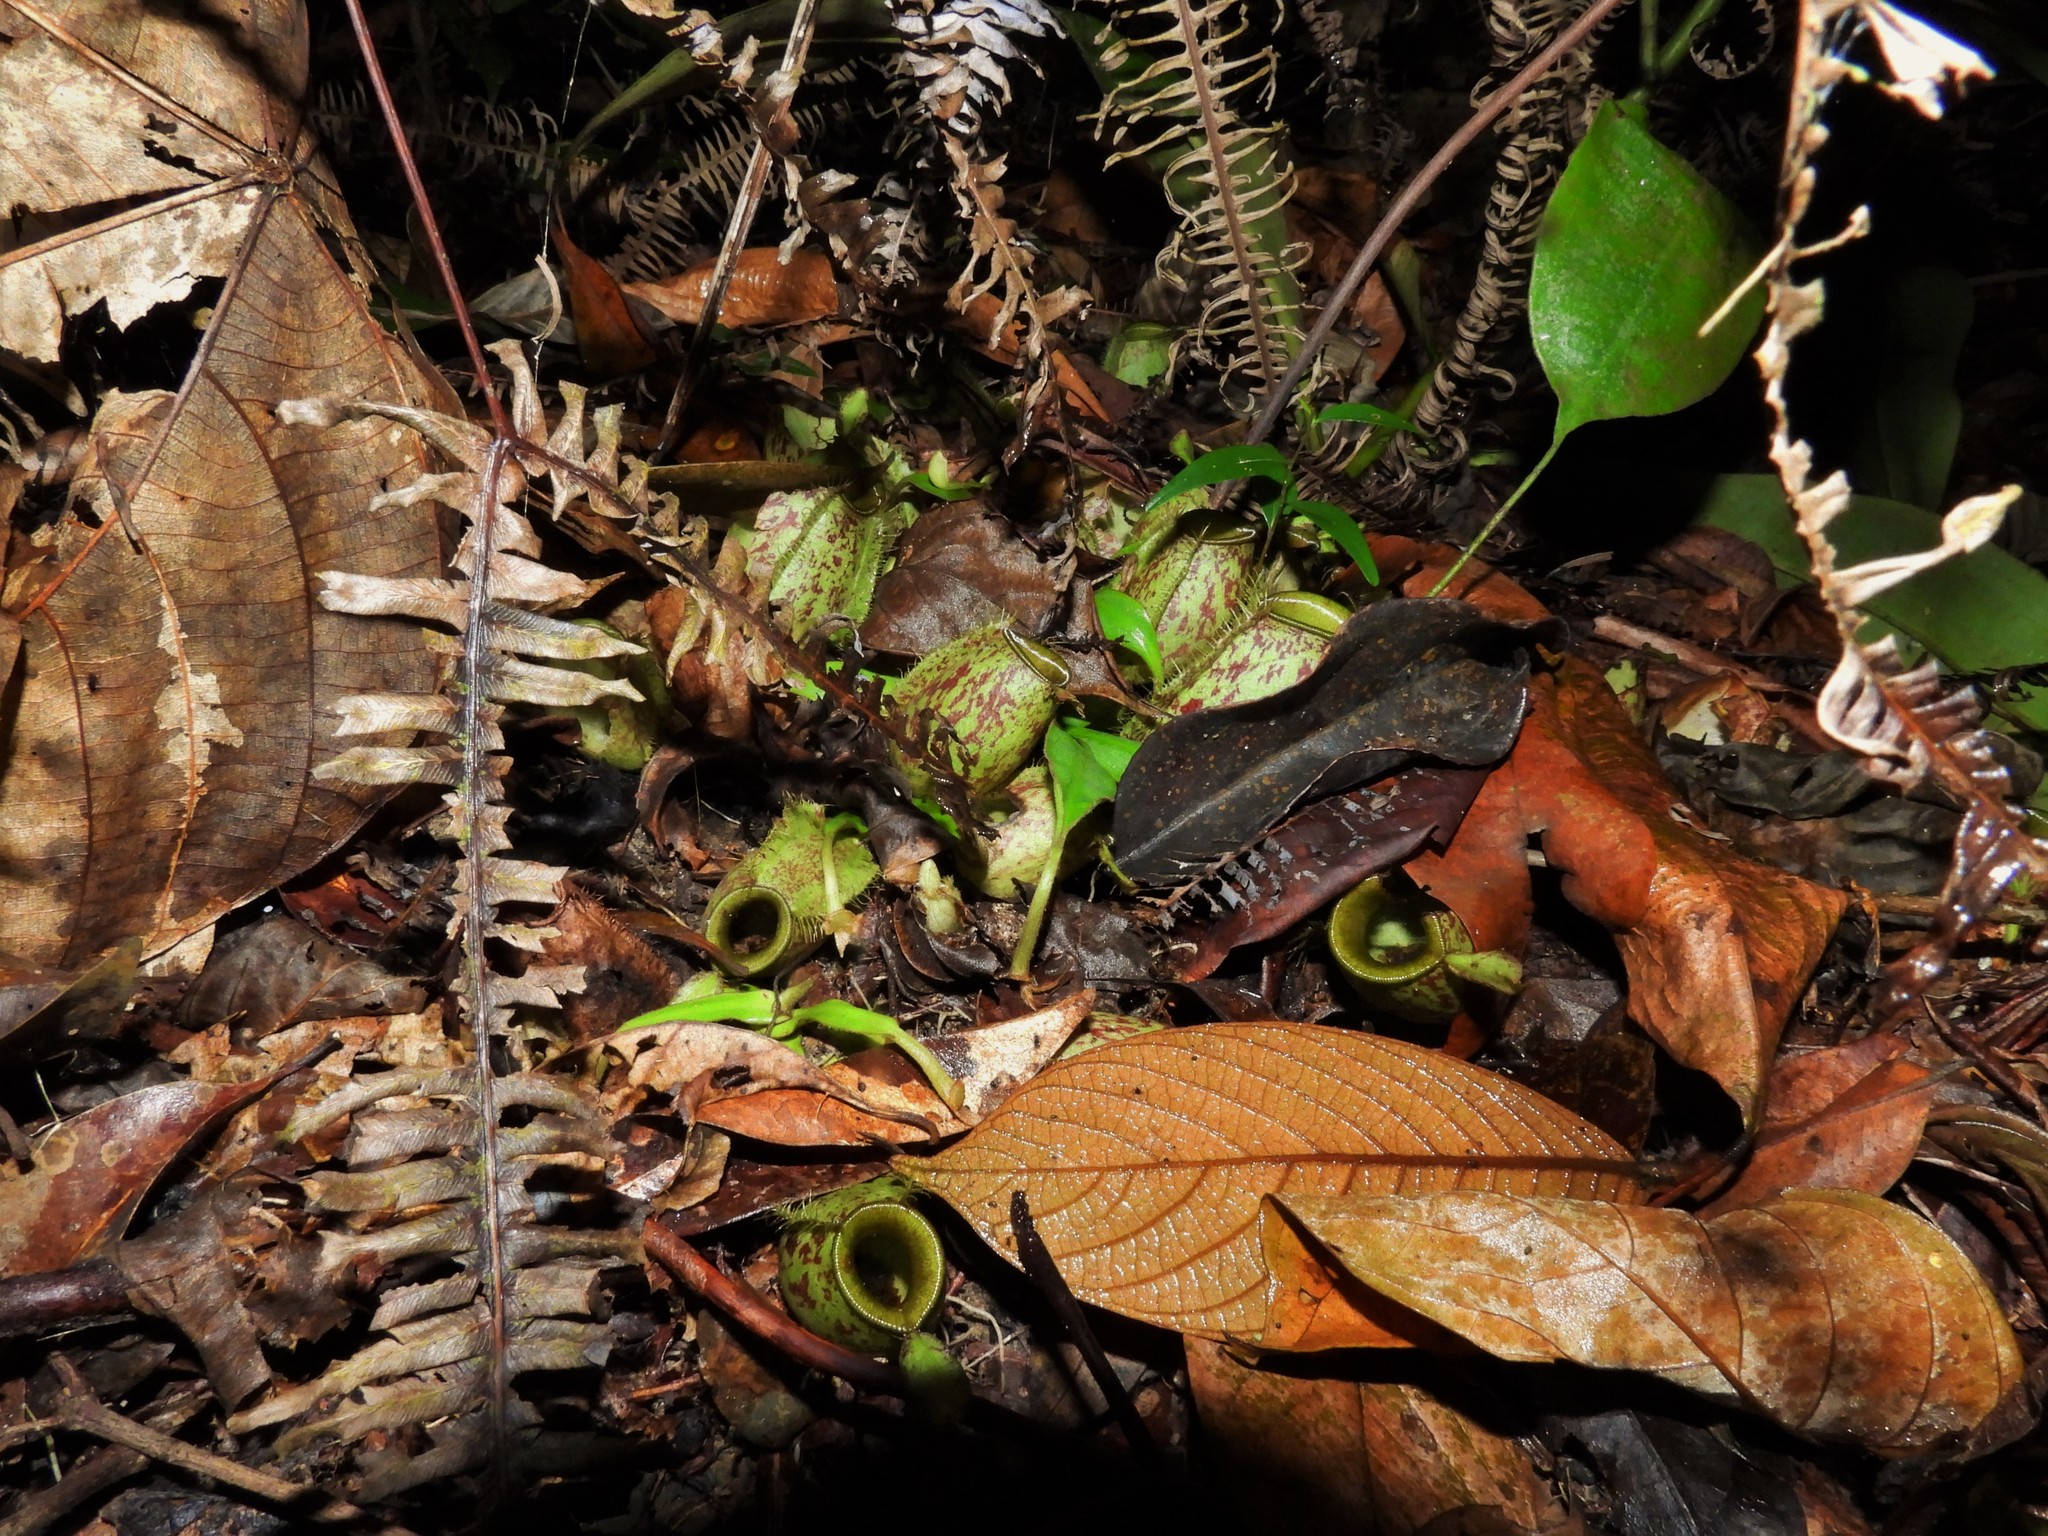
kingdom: Plantae
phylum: Tracheophyta
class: Magnoliopsida
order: Caryophyllales
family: Nepenthaceae
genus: Nepenthes
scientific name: Nepenthes ampullaria
